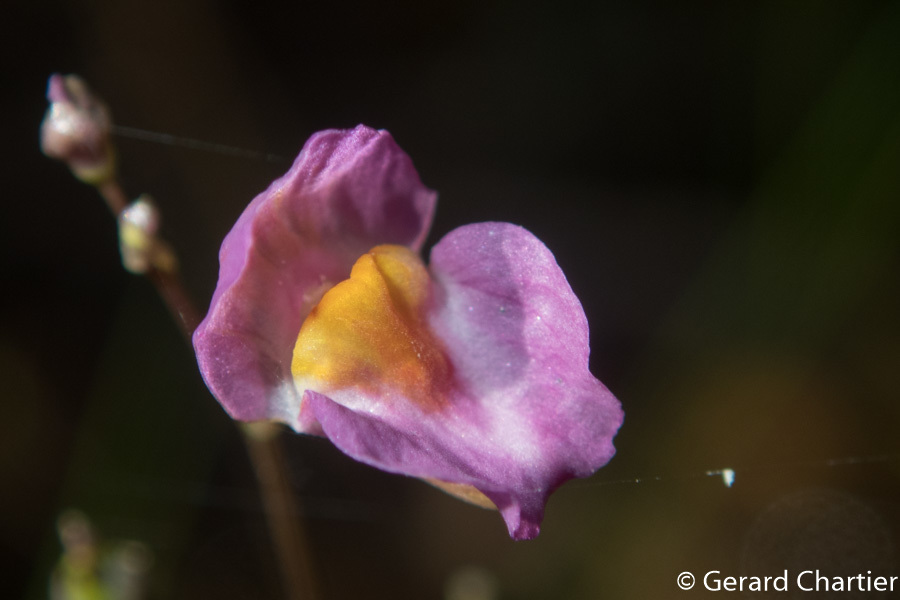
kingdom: Plantae
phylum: Tracheophyta
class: Magnoliopsida
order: Lamiales
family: Lentibulariaceae
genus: Utricularia
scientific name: Utricularia punctata
